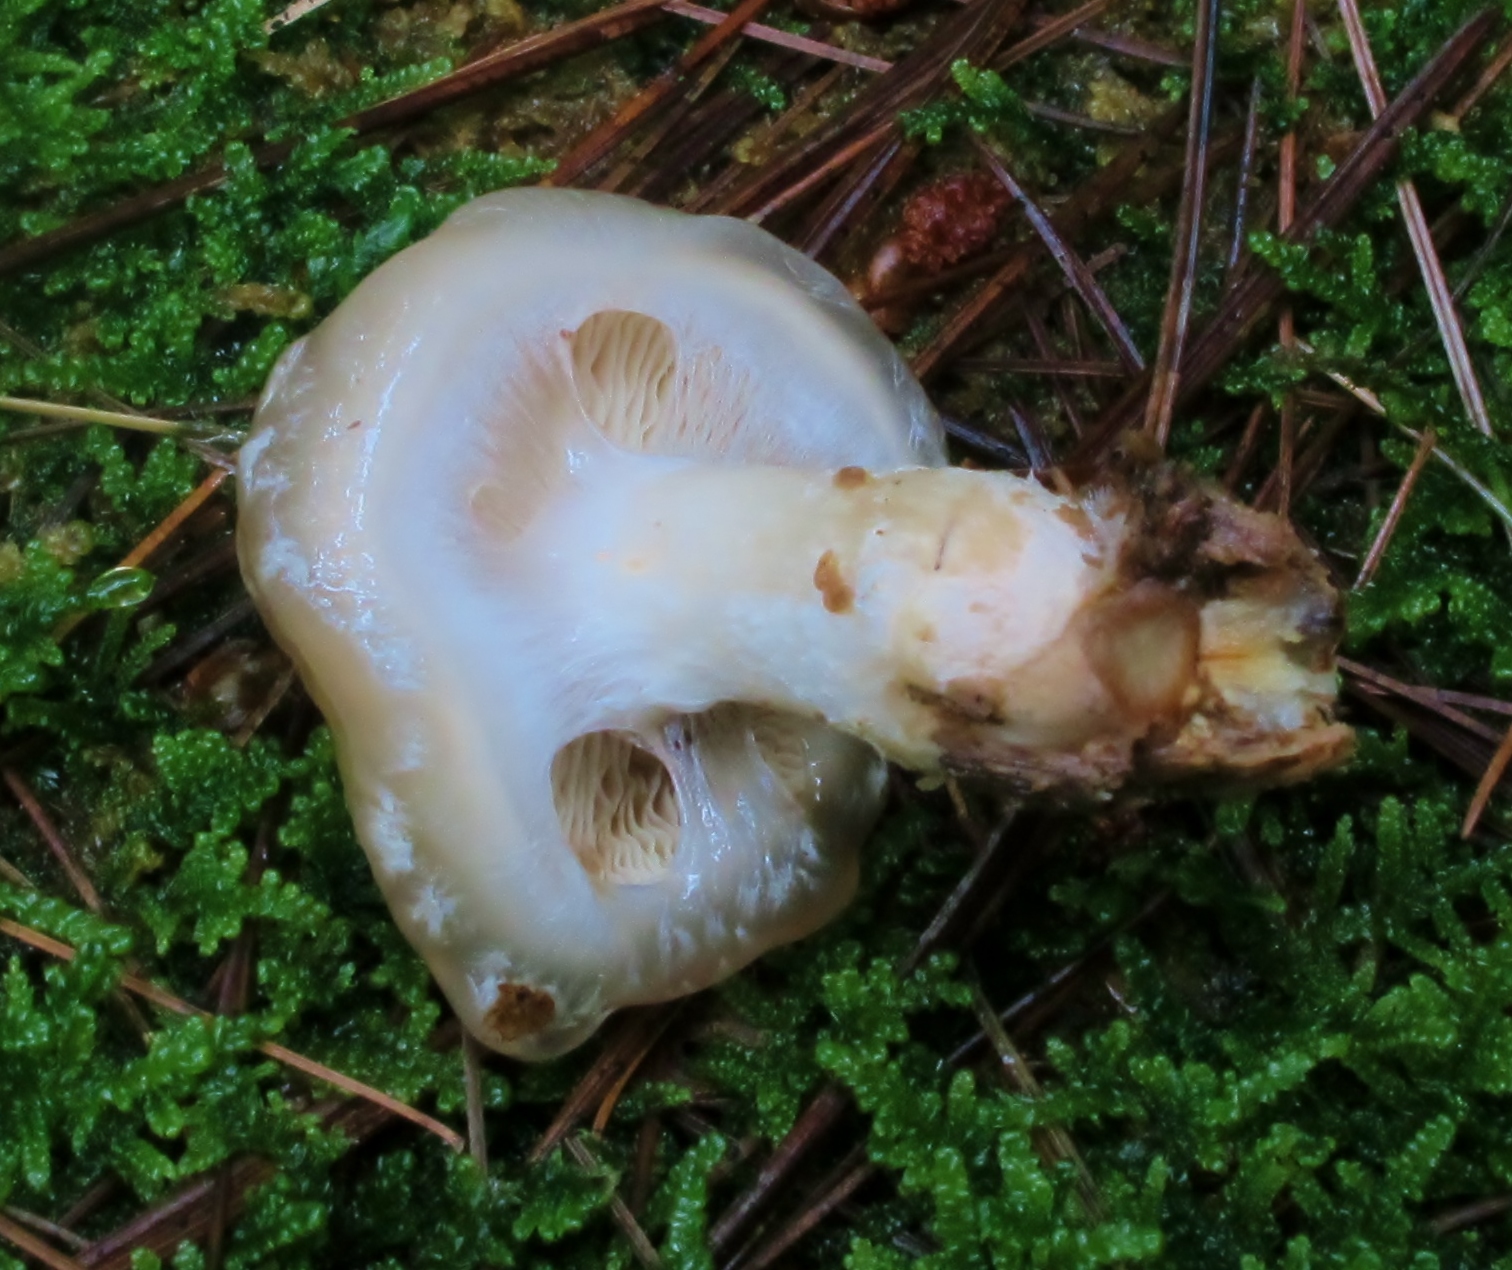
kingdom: Fungi
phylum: Basidiomycota
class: Agaricomycetes
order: Agaricales
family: Strophariaceae
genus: Pholiota
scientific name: Pholiota lenta
